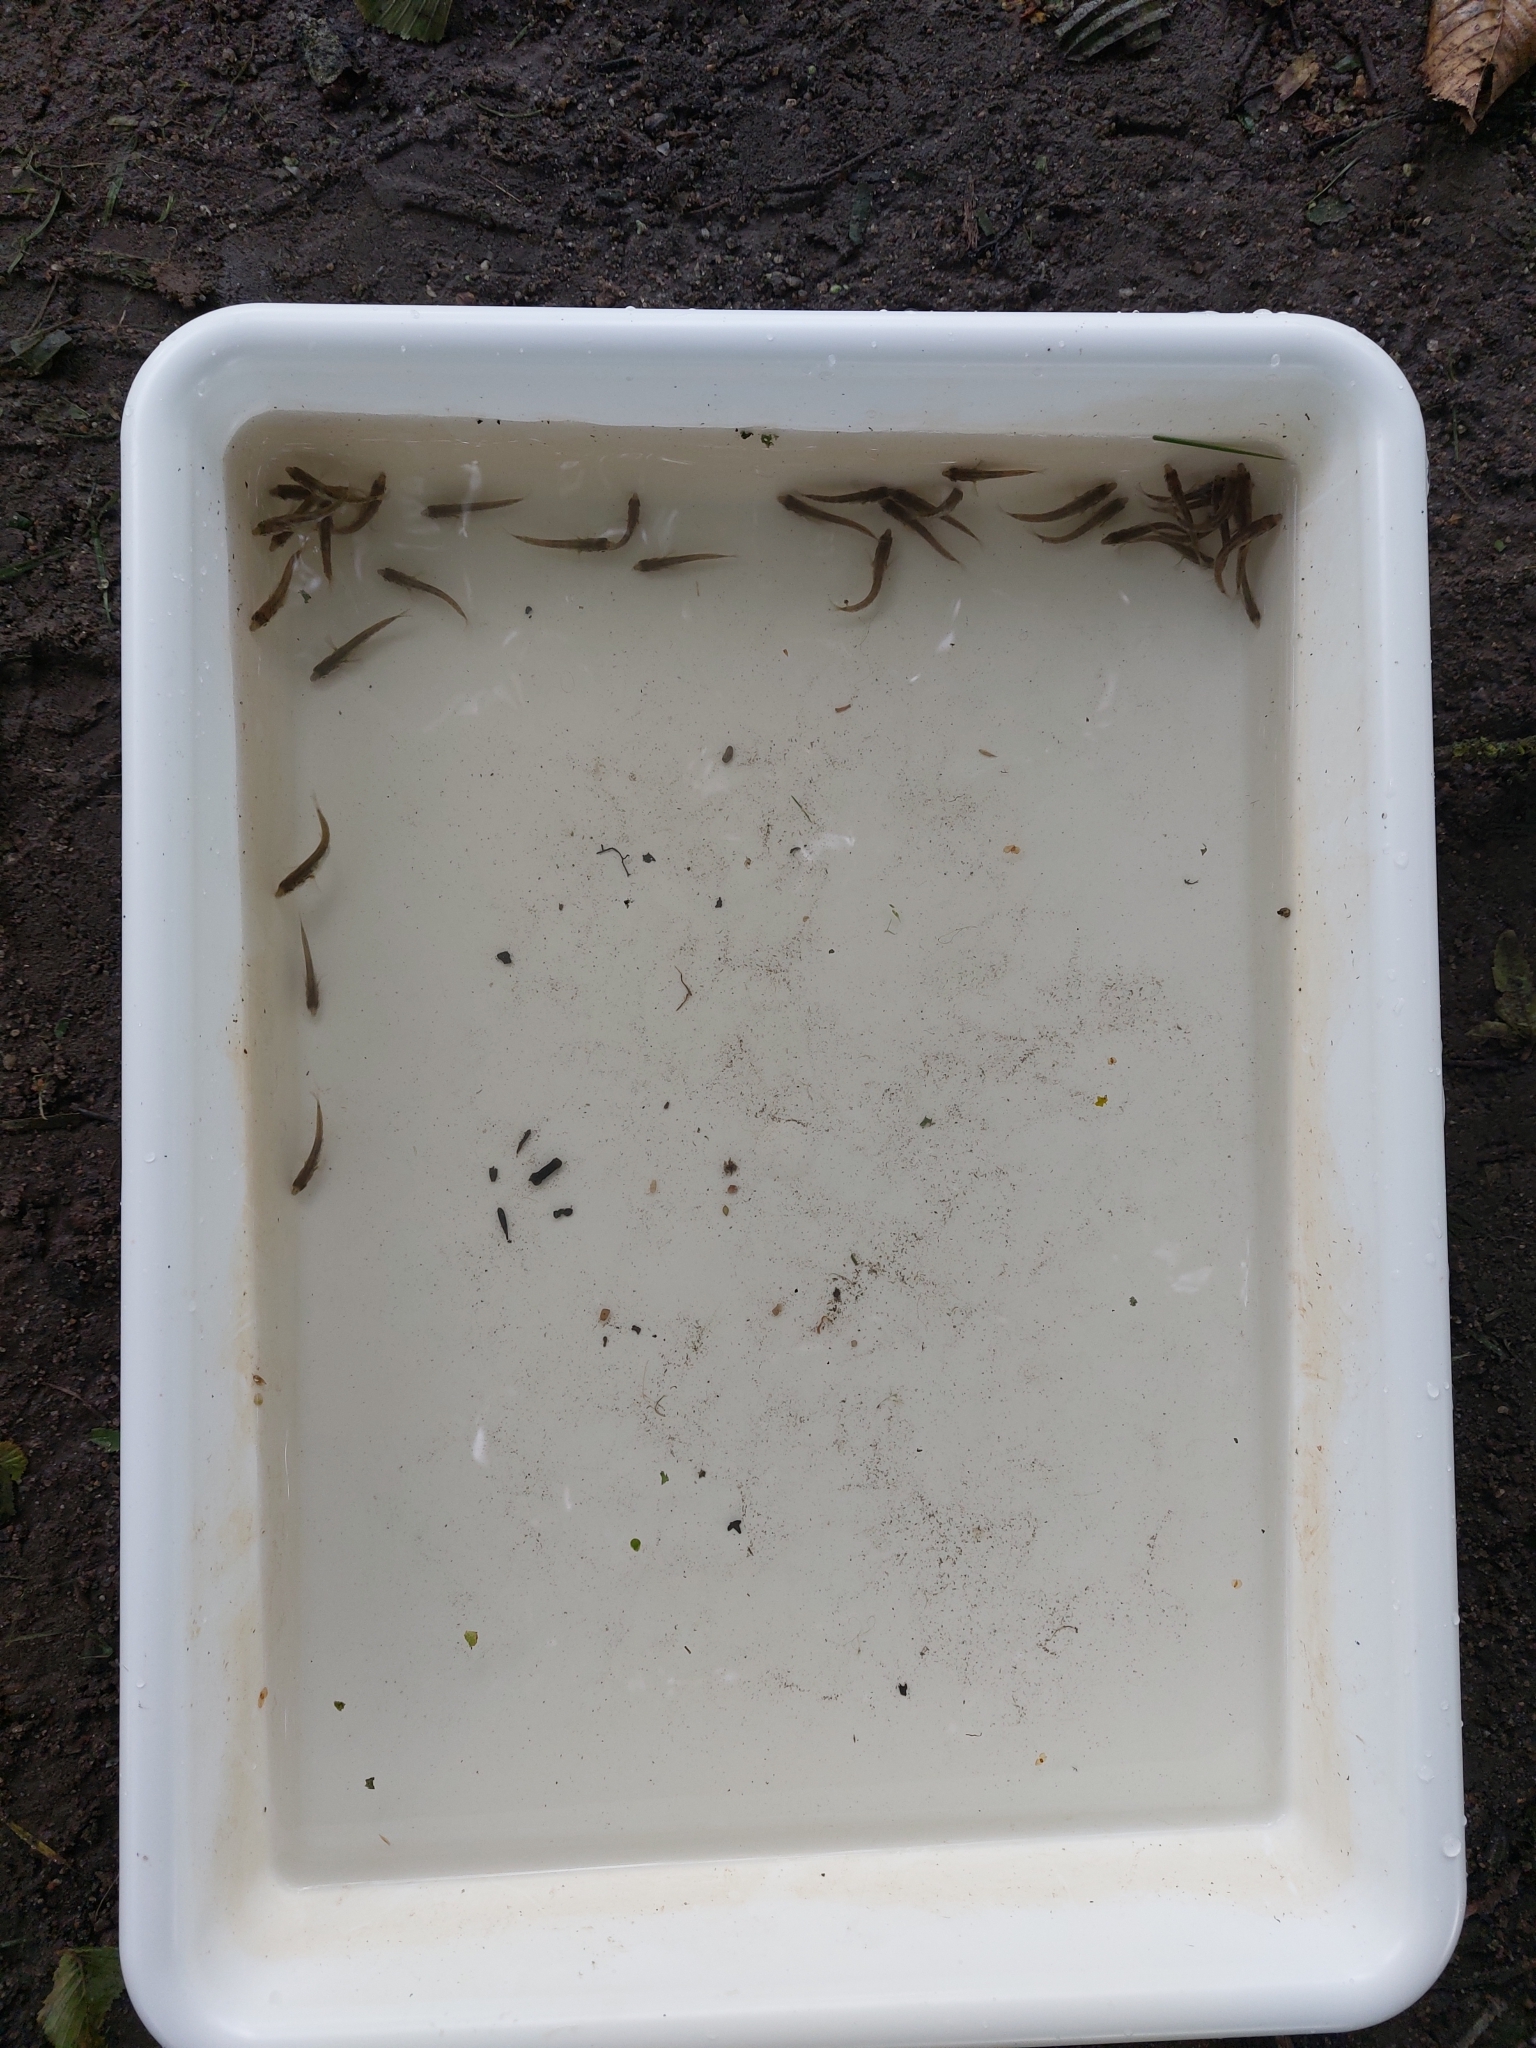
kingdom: Animalia
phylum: Chordata
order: Gasterosteiformes
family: Gasterosteidae
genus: Gasterosteus
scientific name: Gasterosteus aculeatus
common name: Three-spined stickleback
